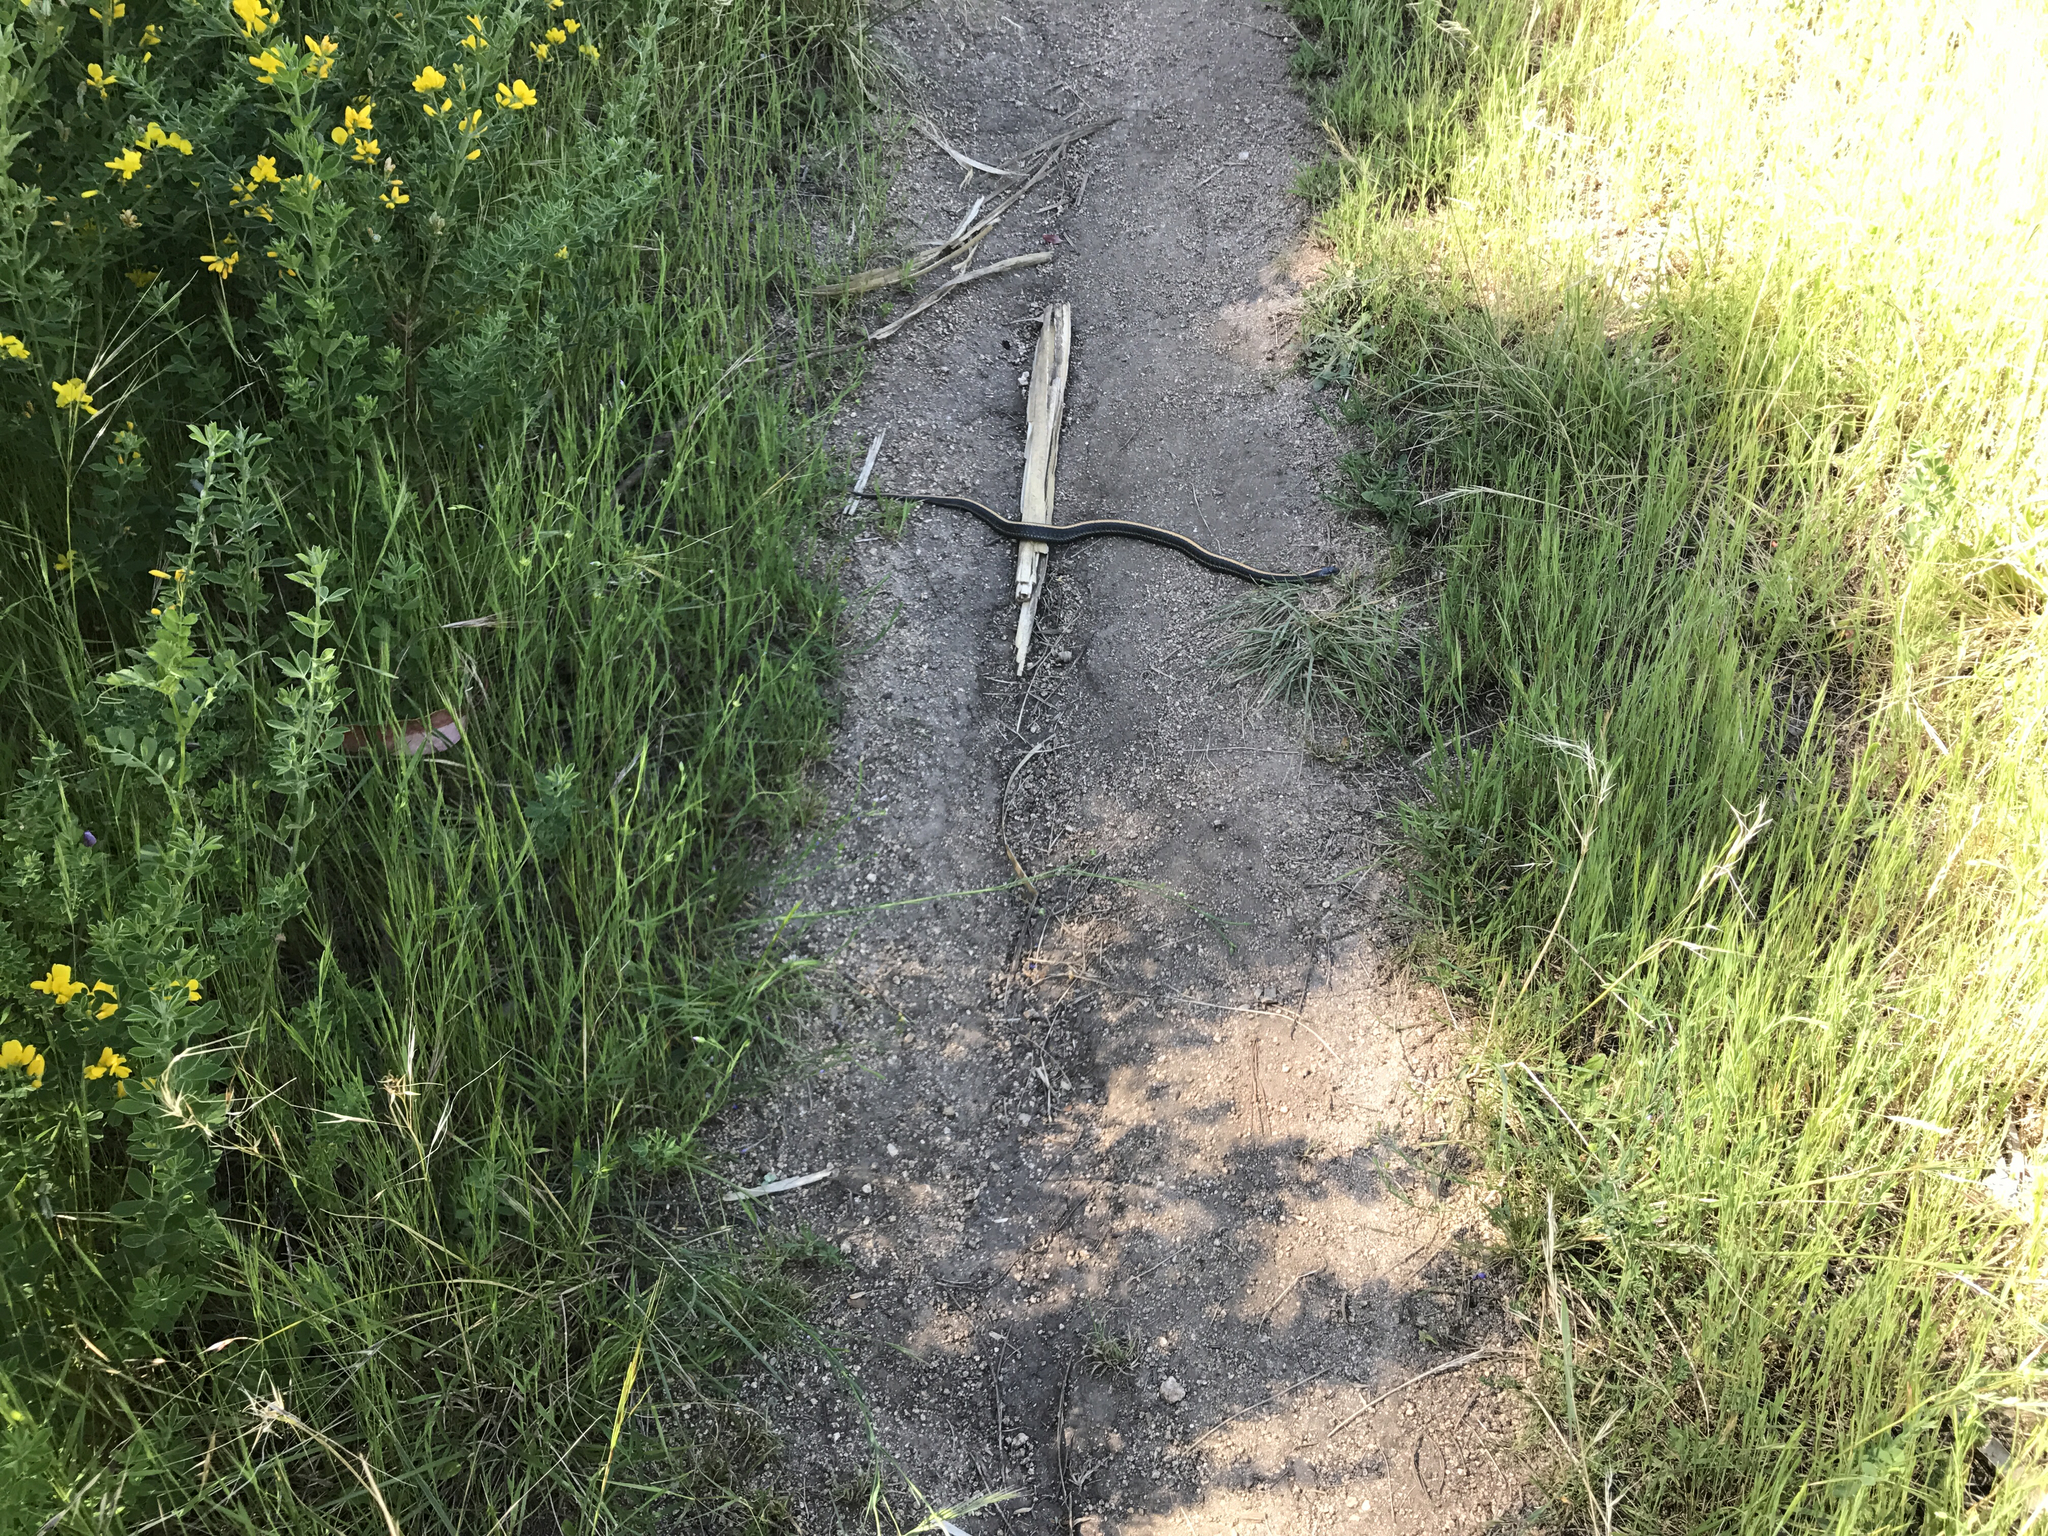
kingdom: Animalia
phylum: Chordata
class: Squamata
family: Colubridae
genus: Thamnophis
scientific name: Thamnophis atratus
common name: Pacific coast aquatic garter snake
